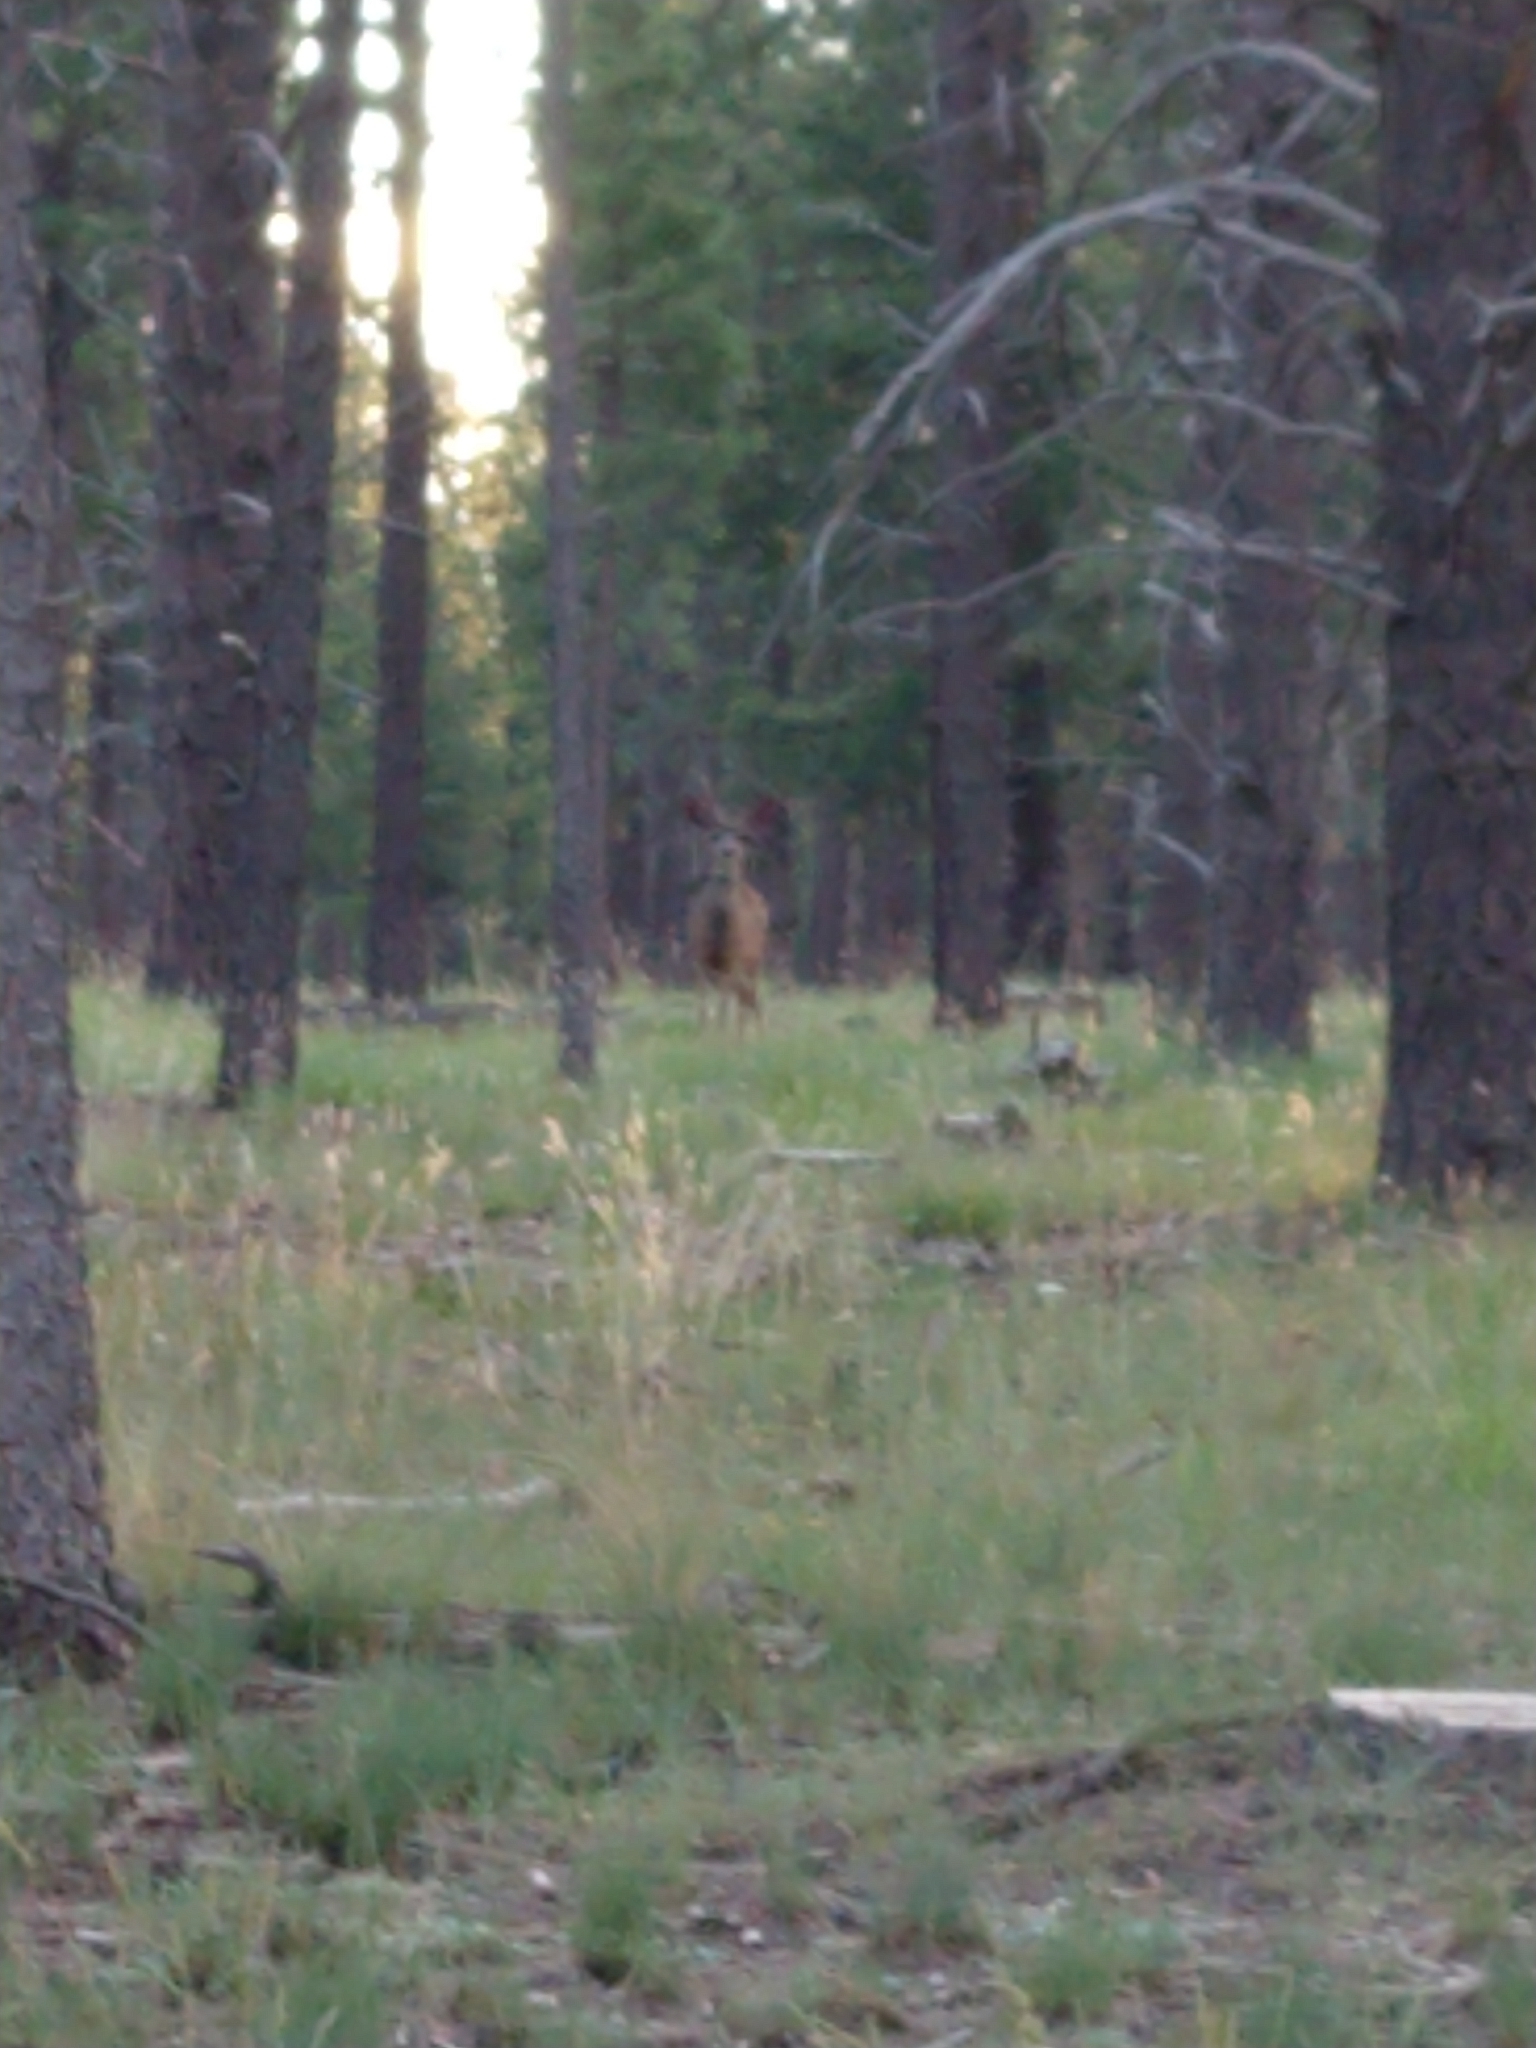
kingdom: Animalia
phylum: Chordata
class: Mammalia
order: Artiodactyla
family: Cervidae
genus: Odocoileus
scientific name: Odocoileus hemionus
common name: Mule deer
